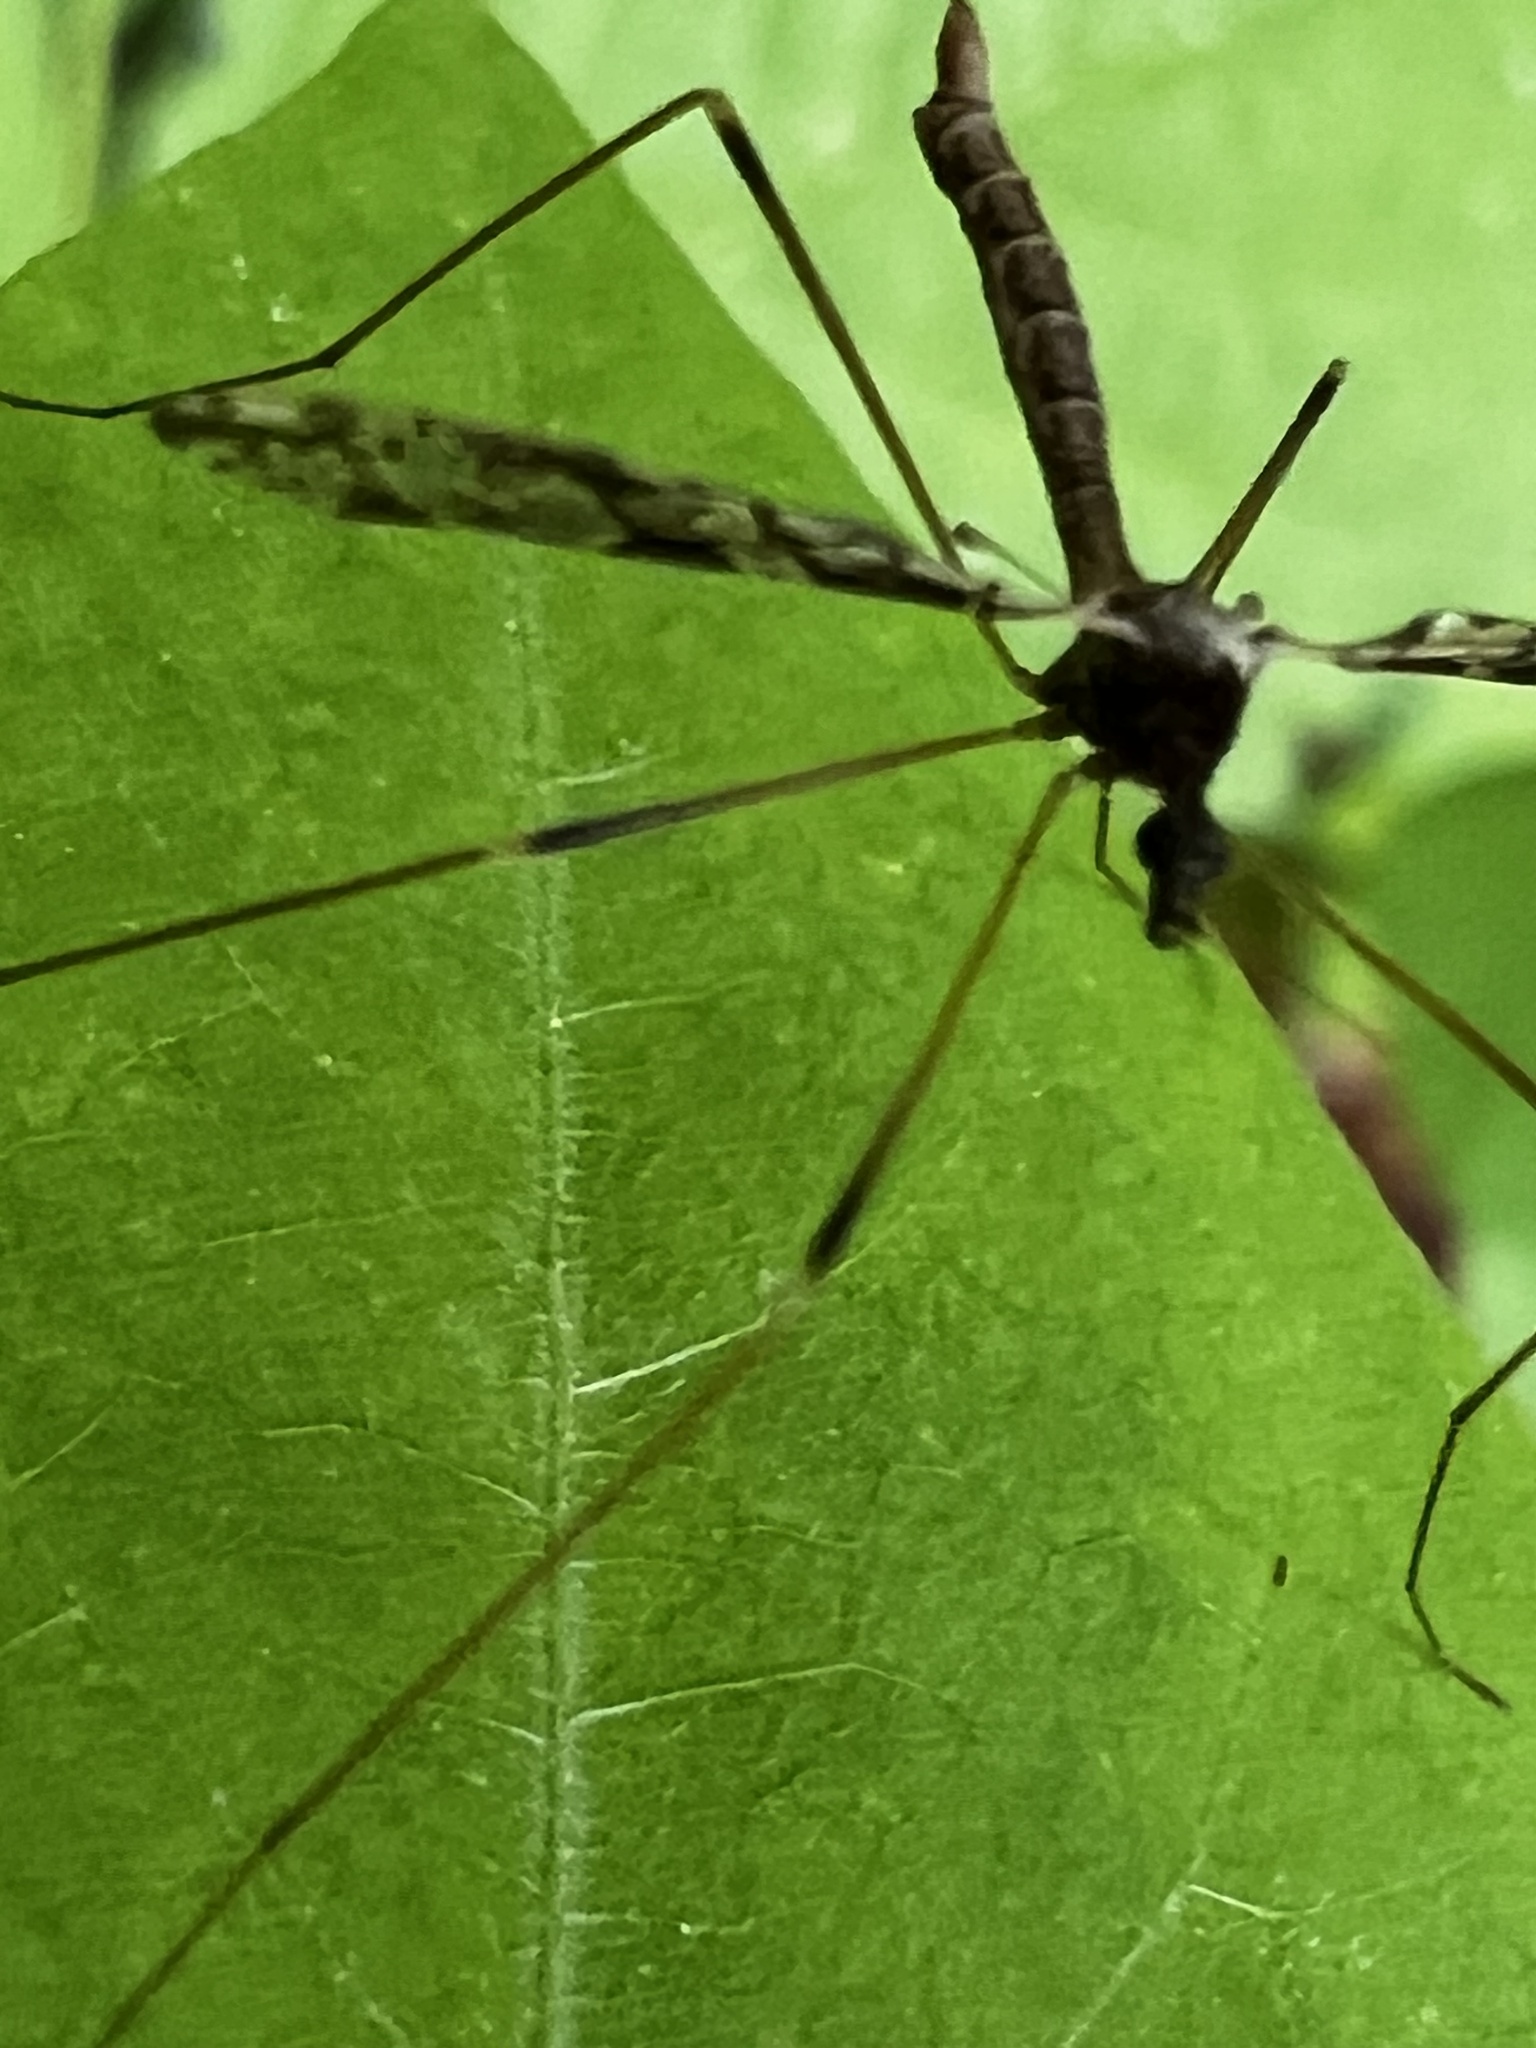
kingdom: Animalia
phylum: Arthropoda
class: Insecta
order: Diptera
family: Limoniidae
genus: Epiphragma
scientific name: Epiphragma solatrix
